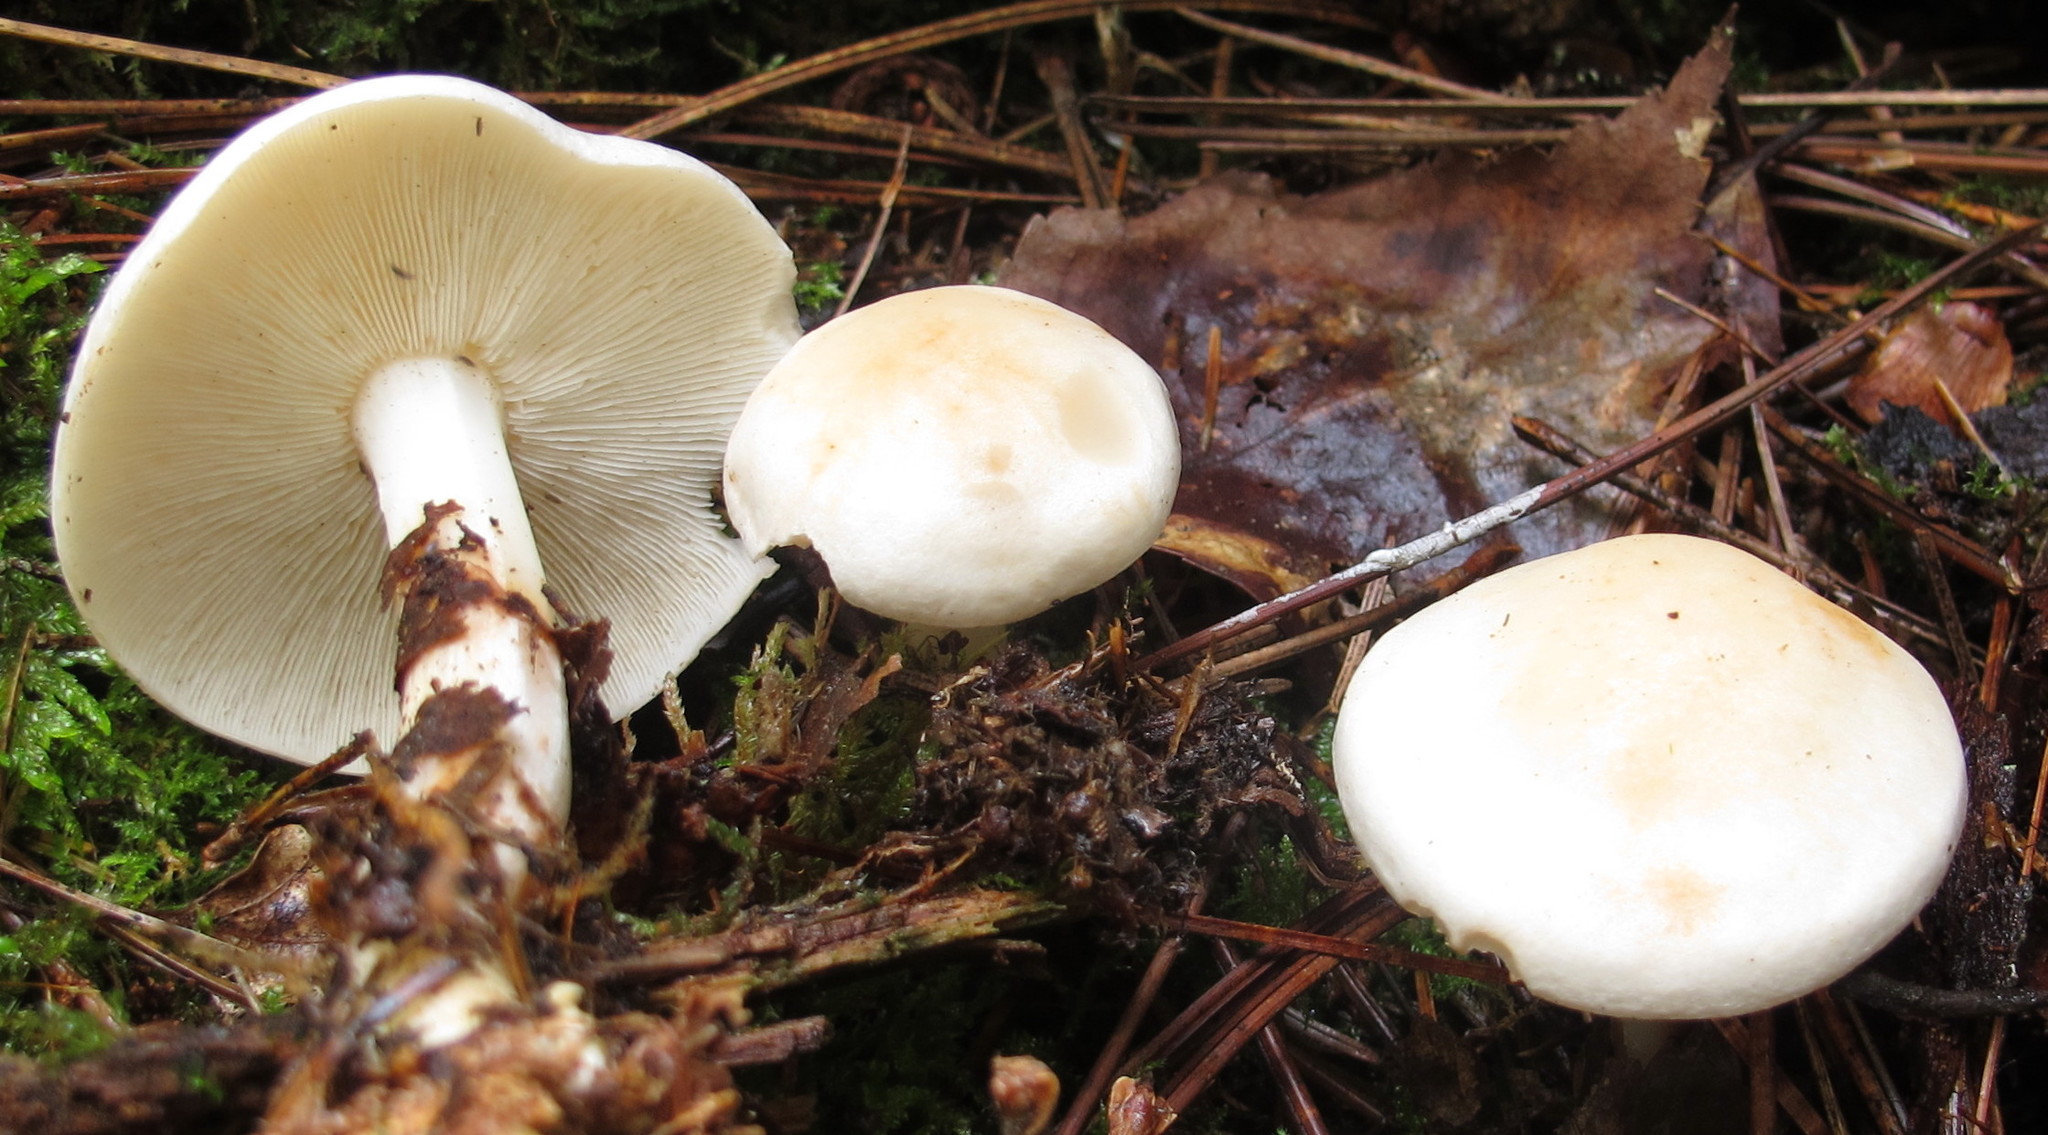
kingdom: Fungi
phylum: Basidiomycota
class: Agaricomycetes
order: Agaricales
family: Omphalotaceae
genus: Rhodocollybia
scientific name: Rhodocollybia maculata
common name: Spotted tough-shank
